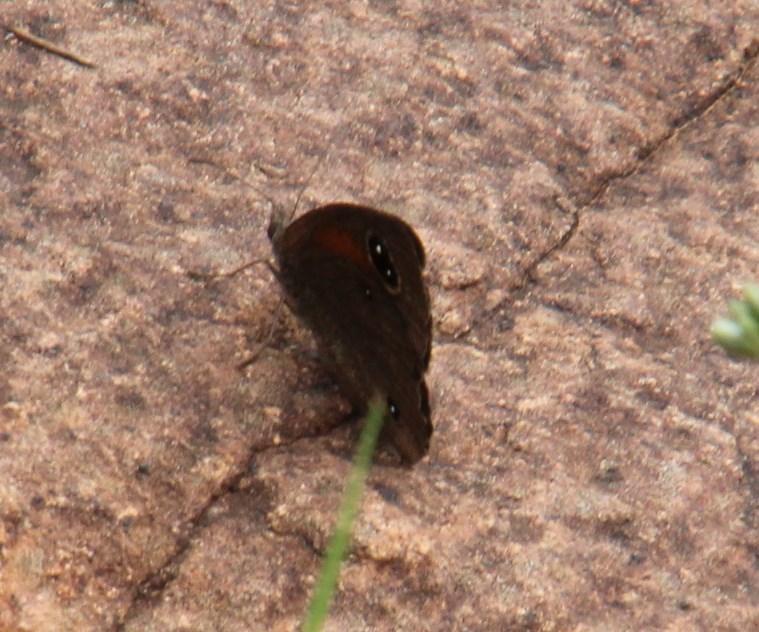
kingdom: Animalia
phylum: Arthropoda
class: Insecta
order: Lepidoptera
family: Nymphalidae
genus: Stygionympha
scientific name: Stygionympha scotina
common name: Eastern hillside brown
